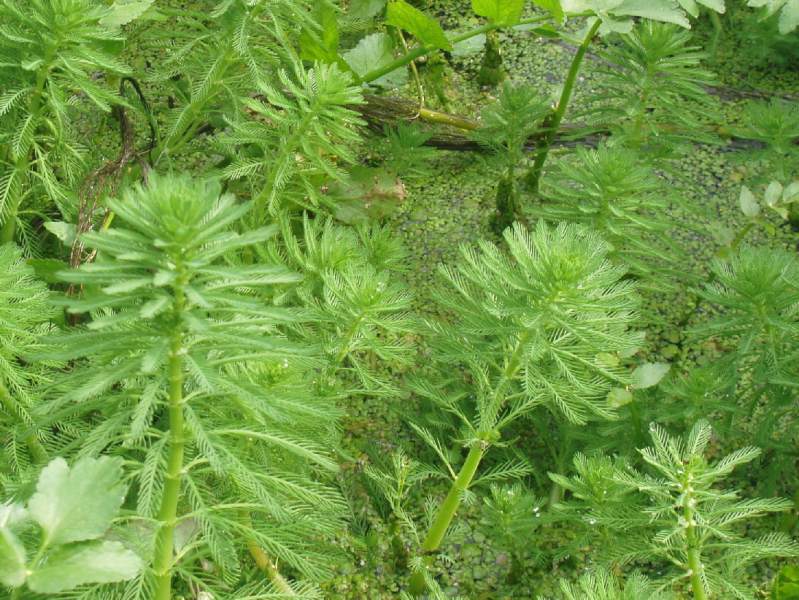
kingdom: Plantae
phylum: Tracheophyta
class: Magnoliopsida
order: Saxifragales
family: Haloragaceae
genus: Myriophyllum
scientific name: Myriophyllum aquaticum
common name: Parrot's feather
